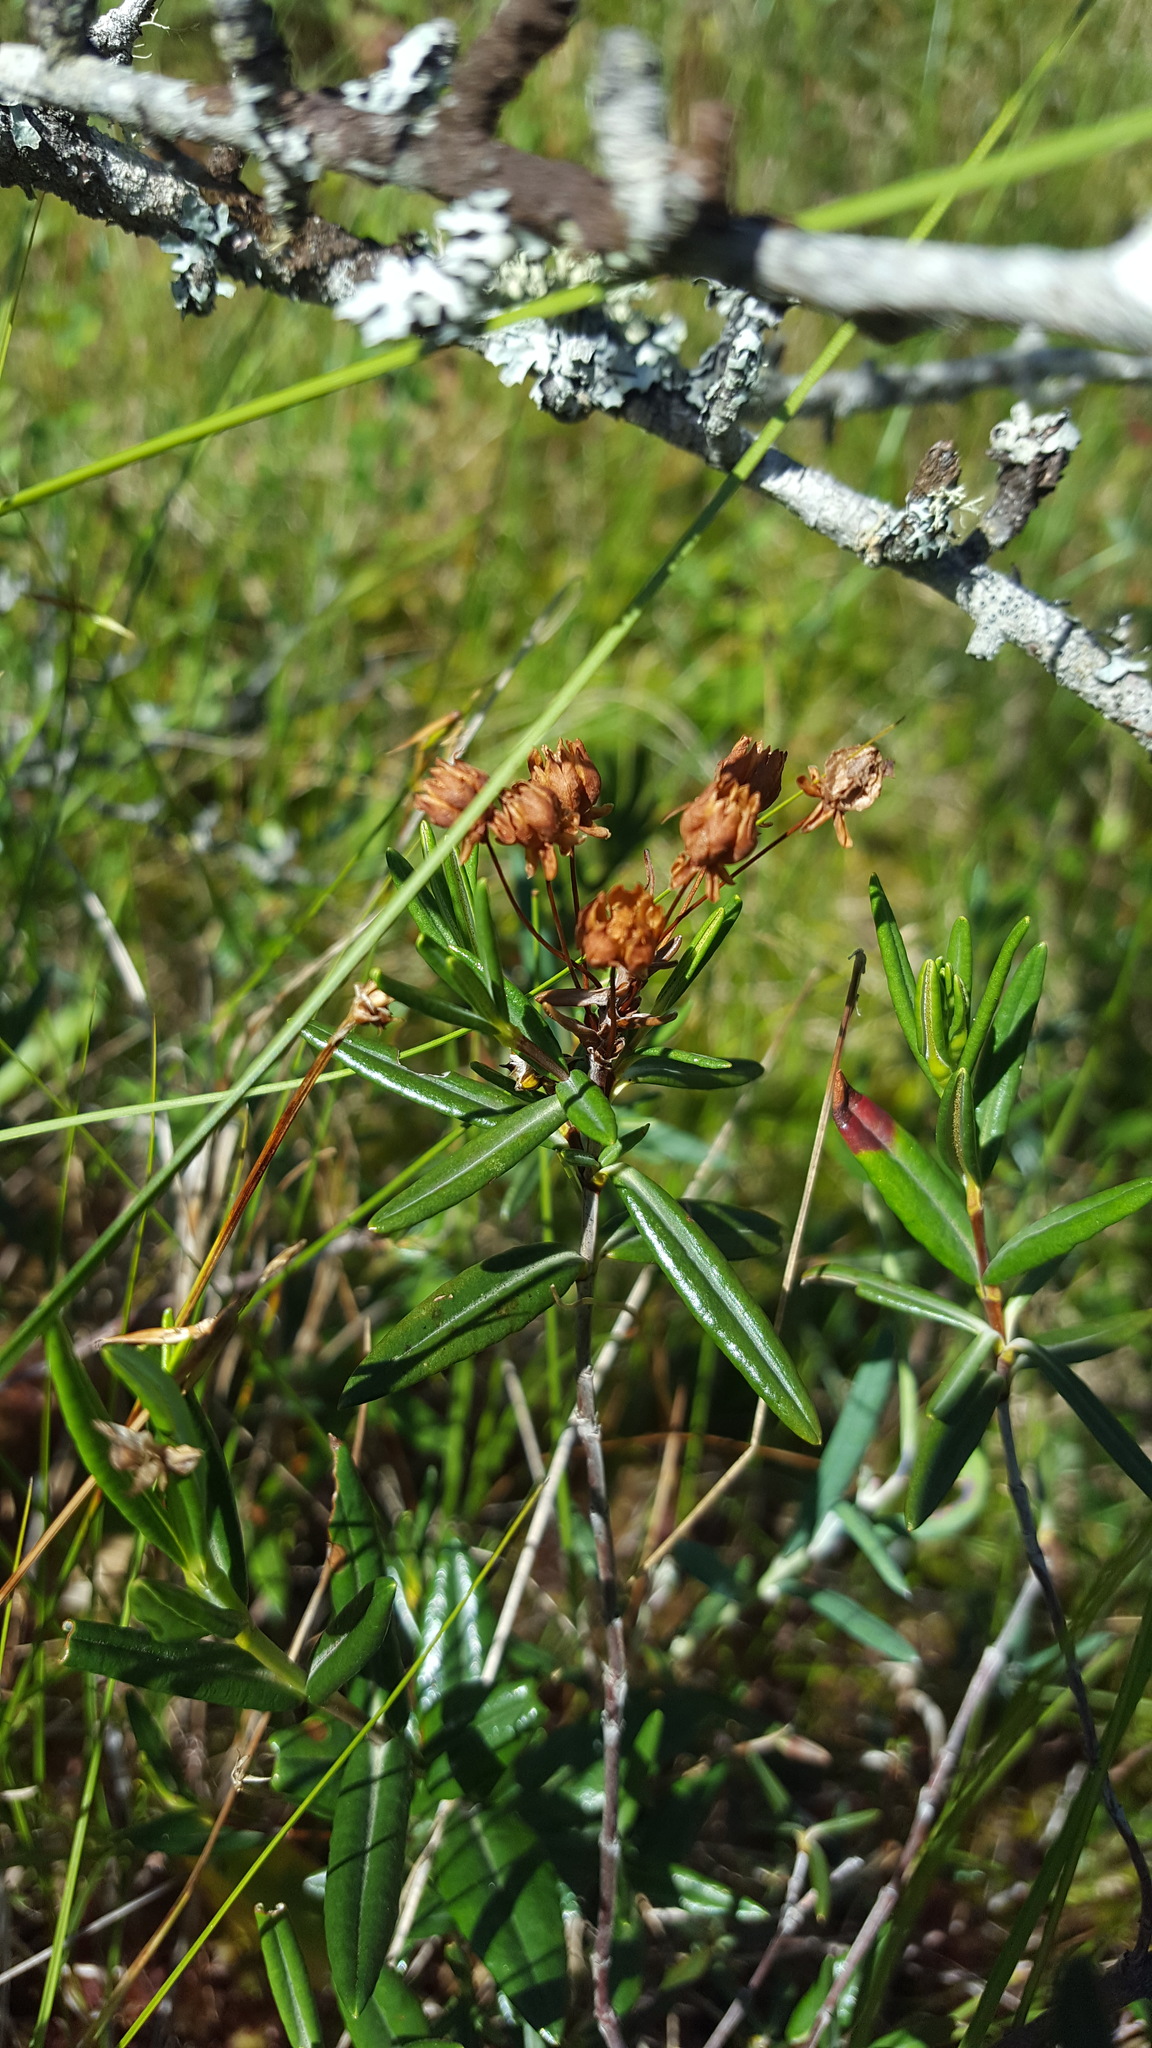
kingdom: Plantae
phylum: Tracheophyta
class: Magnoliopsida
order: Ericales
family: Ericaceae
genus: Kalmia
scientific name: Kalmia polifolia
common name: Bog-laurel
